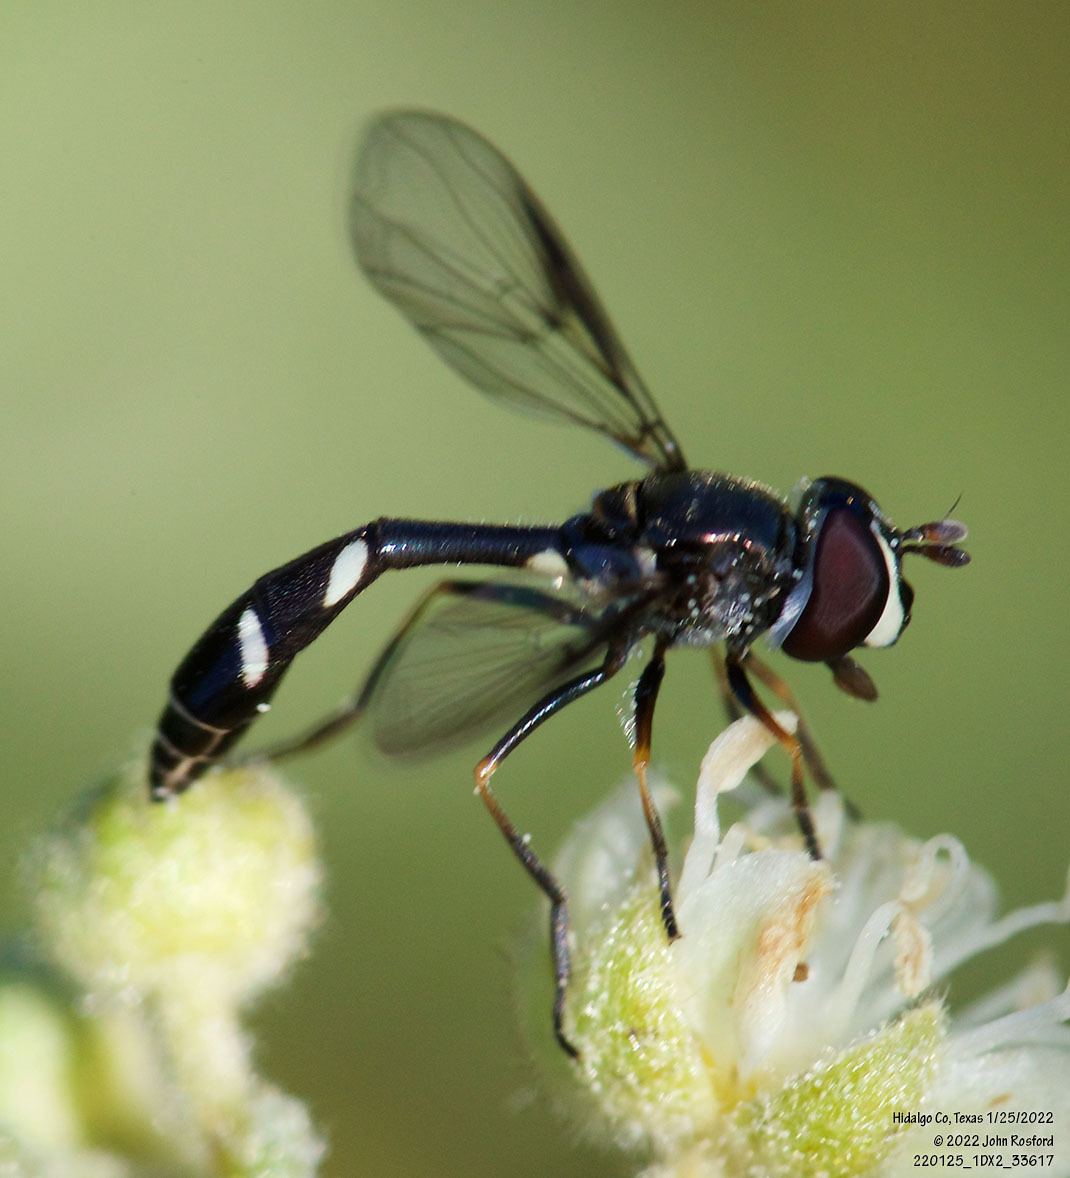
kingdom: Animalia
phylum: Arthropoda
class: Insecta
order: Diptera
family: Syrphidae
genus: Dioprosopa
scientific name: Dioprosopa clavatus
